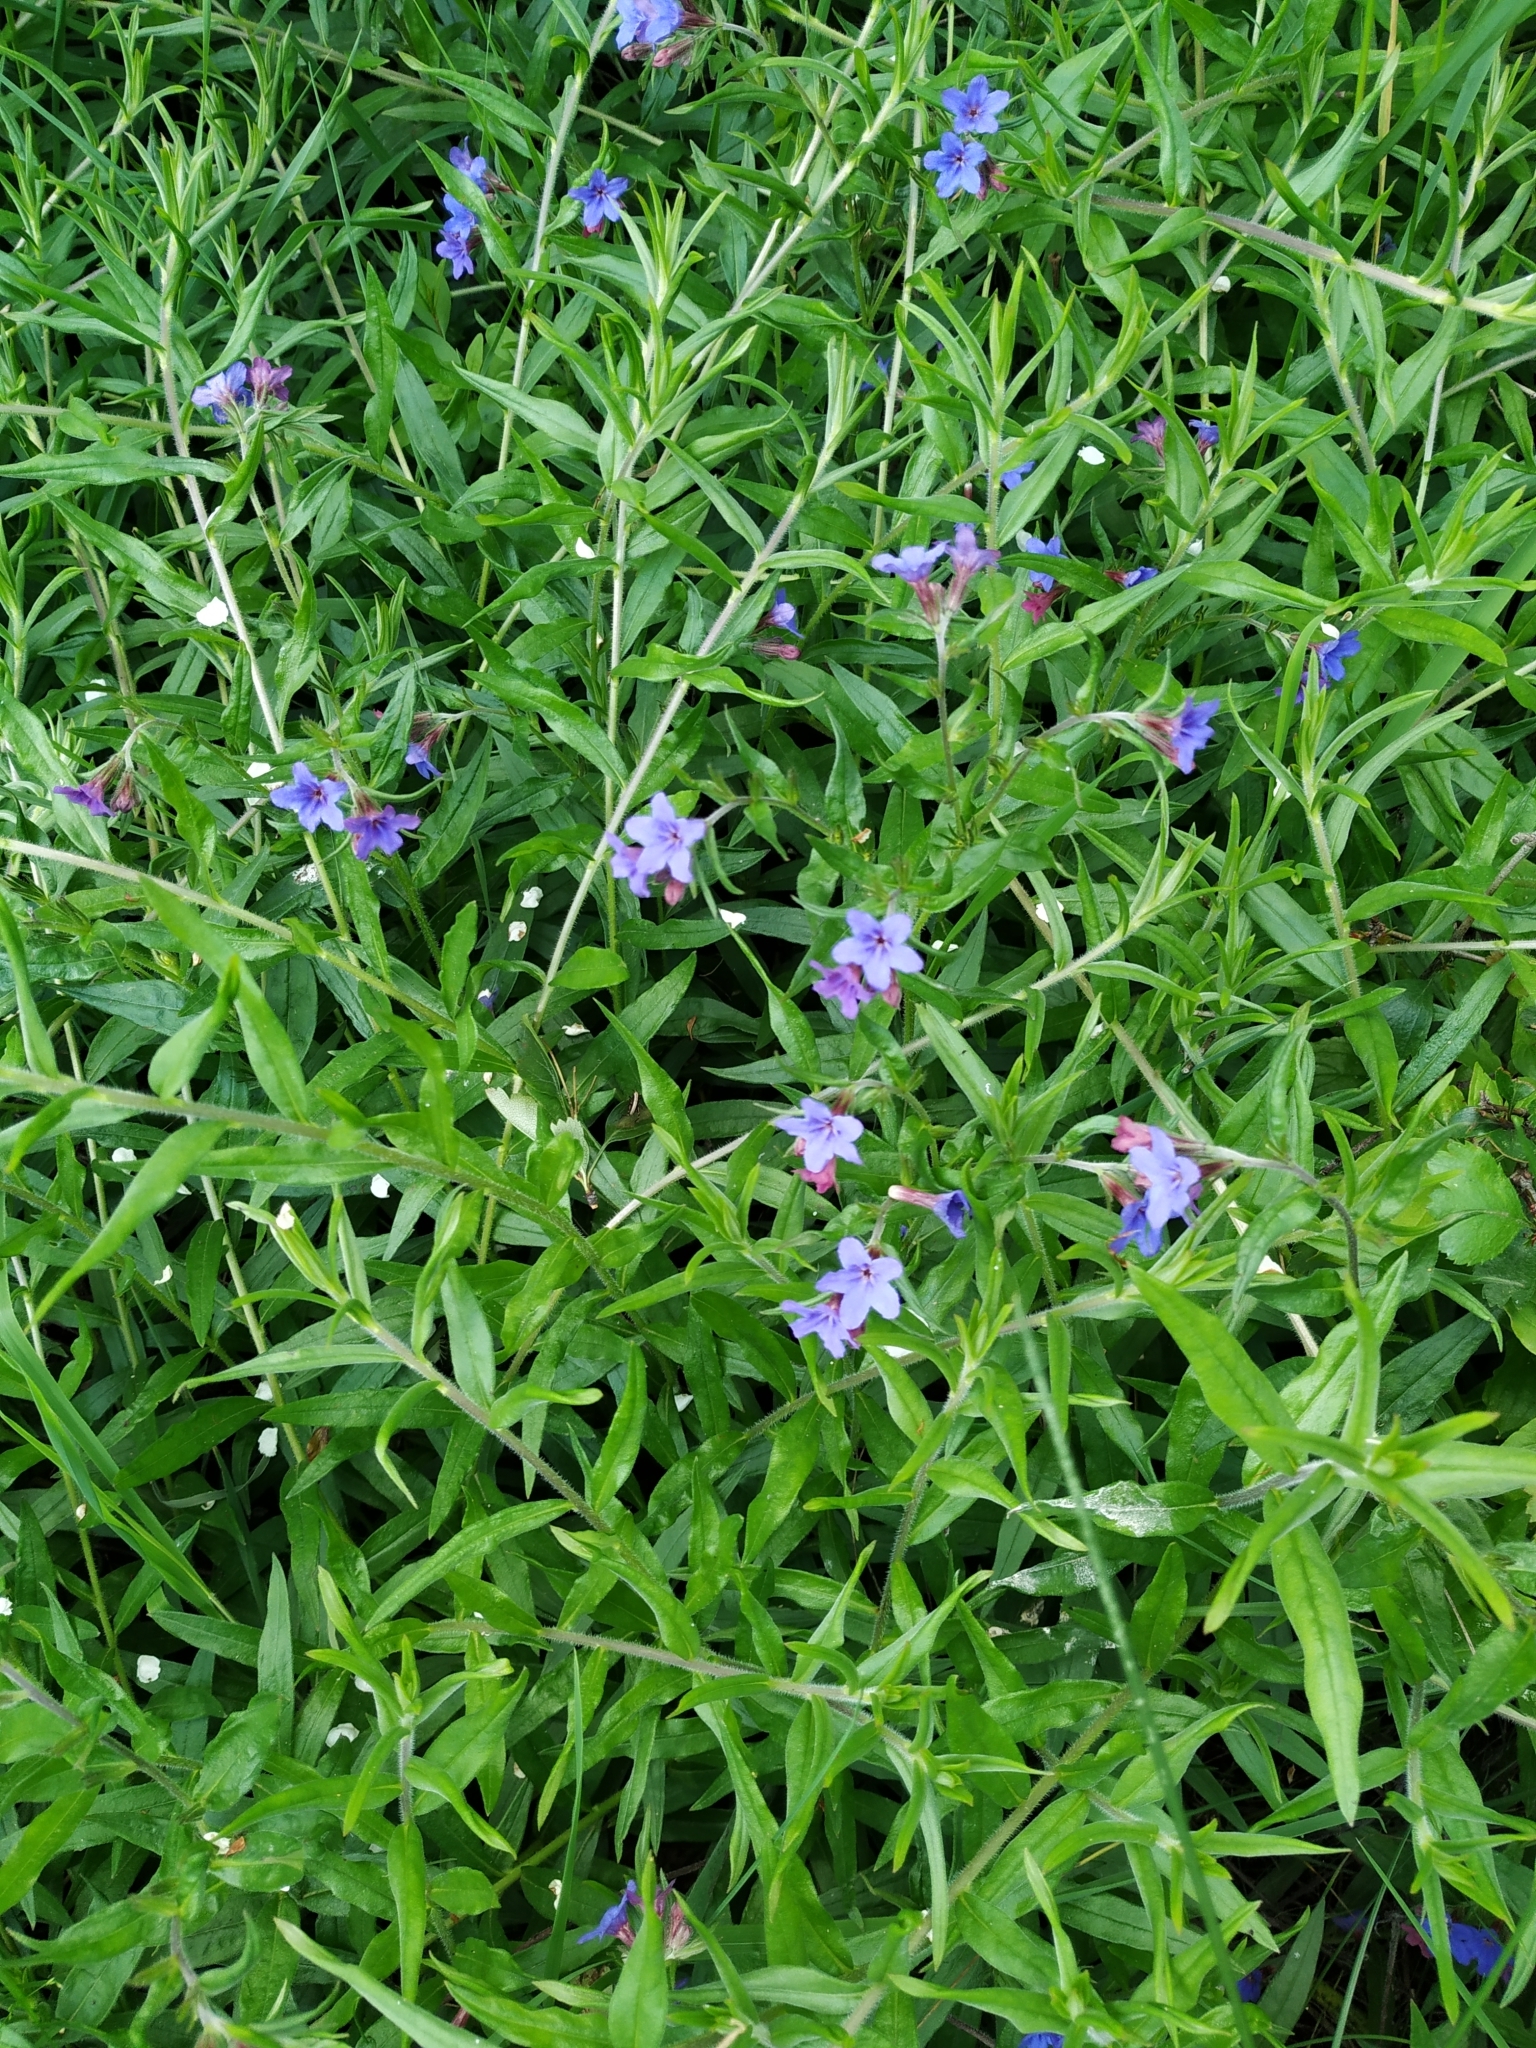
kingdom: Plantae
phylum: Tracheophyta
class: Magnoliopsida
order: Boraginales
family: Boraginaceae
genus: Aegonychon
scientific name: Aegonychon purpurocaeruleum
